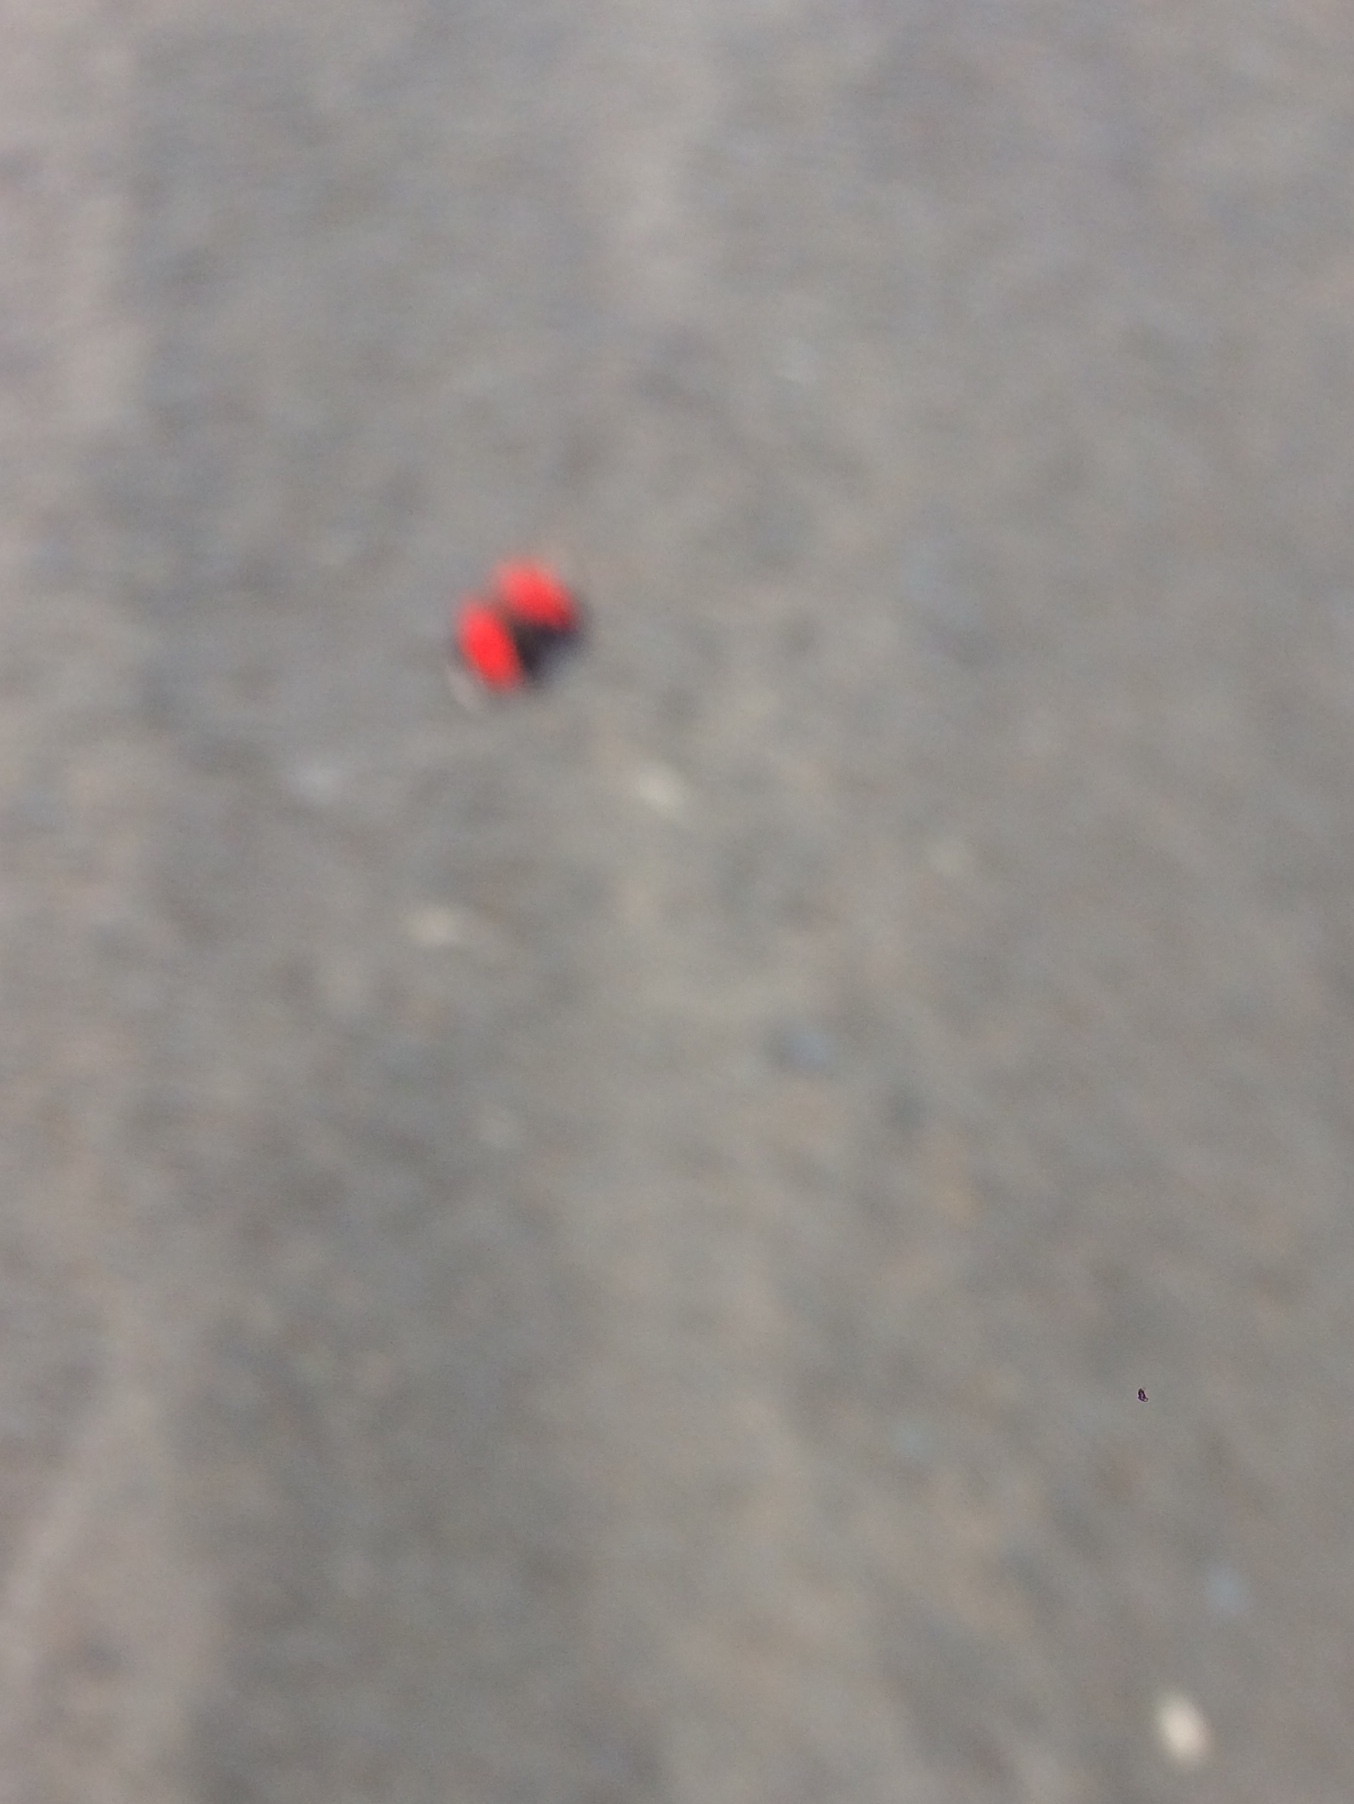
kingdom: Animalia
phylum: Arthropoda
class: Insecta
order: Lepidoptera
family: Nymphalidae
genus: Catagramma
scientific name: Catagramma pygas
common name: Godart's numberwing
